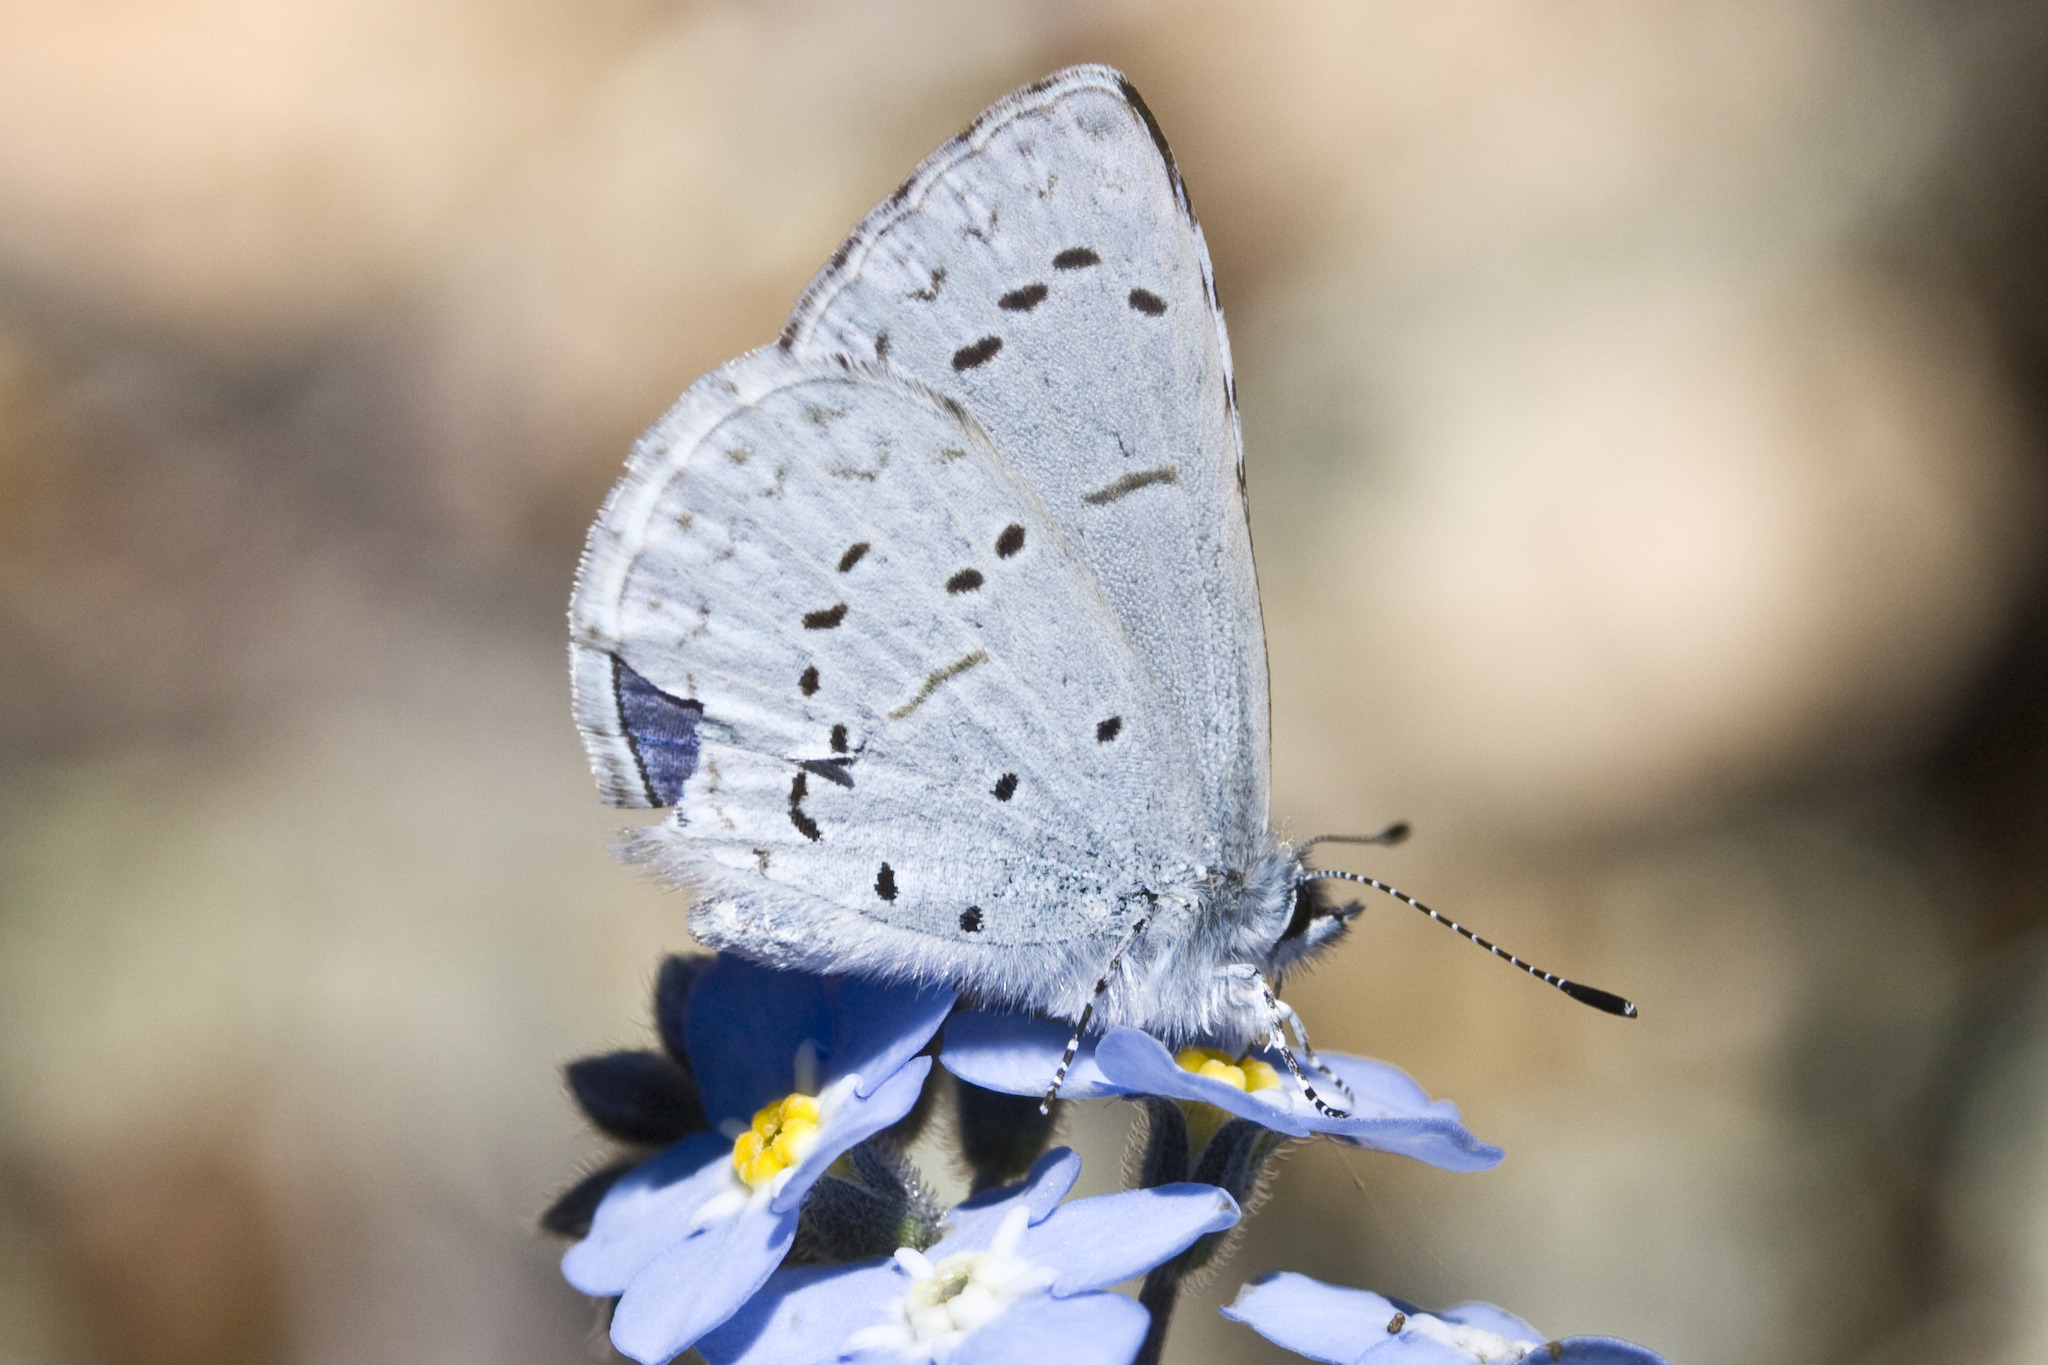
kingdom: Animalia
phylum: Arthropoda
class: Insecta
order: Lepidoptera
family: Lycaenidae
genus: Celastrina
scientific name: Celastrina ladon
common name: Spring azure
